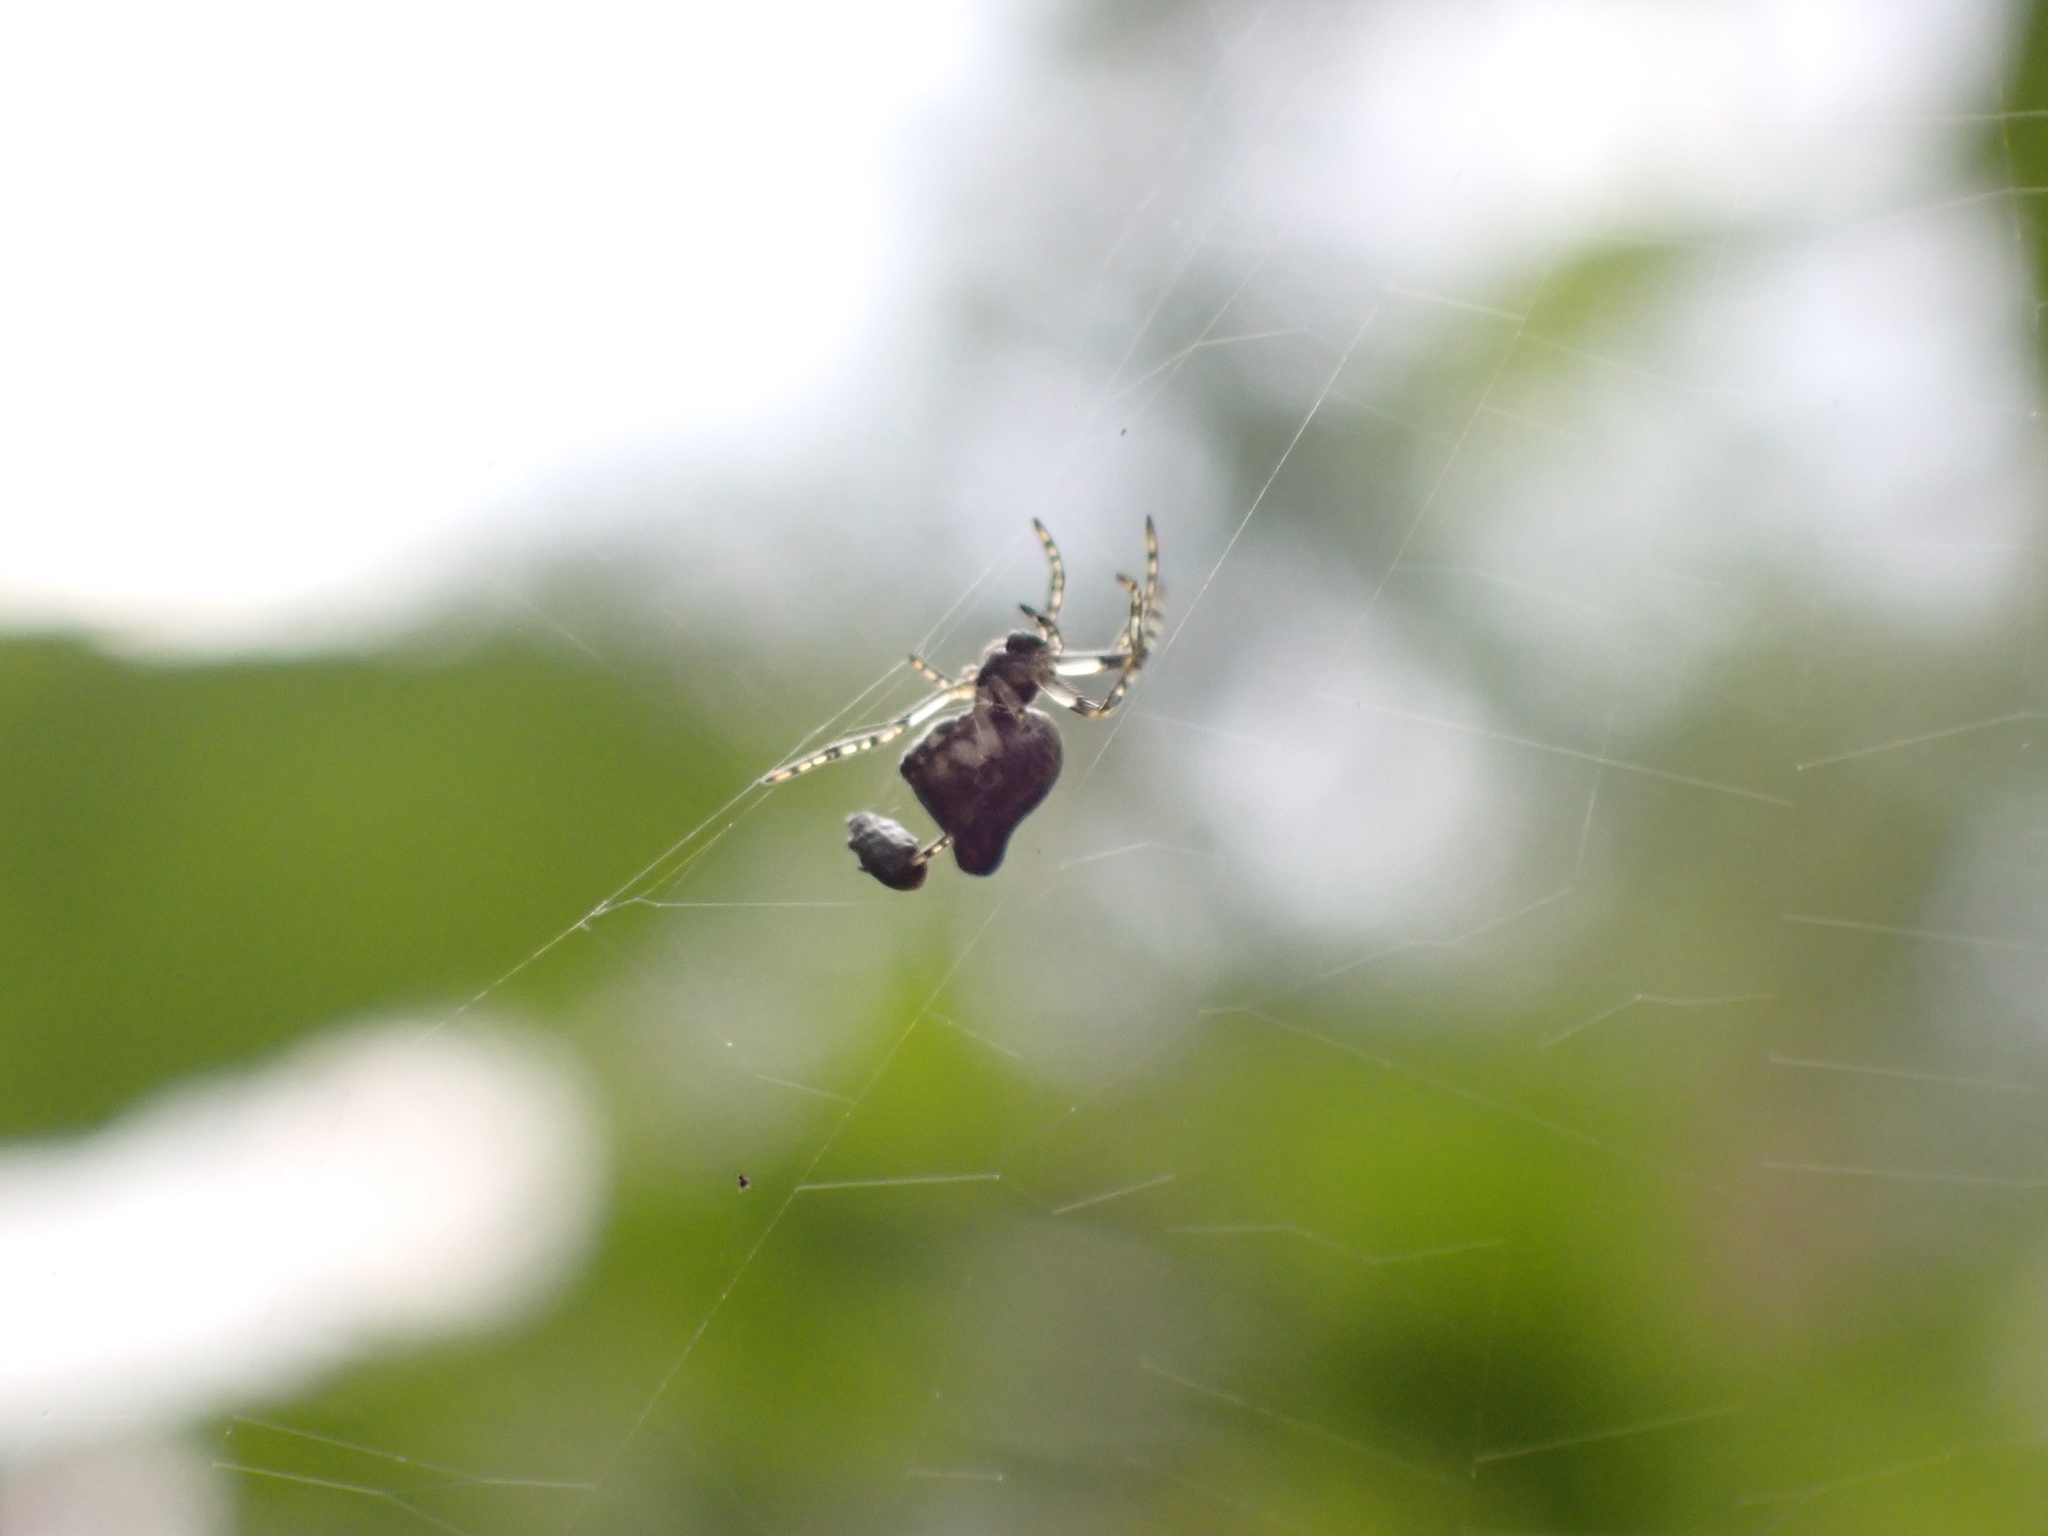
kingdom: Animalia
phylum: Arthropoda
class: Arachnida
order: Araneae
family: Araneidae
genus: Cyclosa
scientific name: Cyclosa conica
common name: Conical trashline orbweaver
